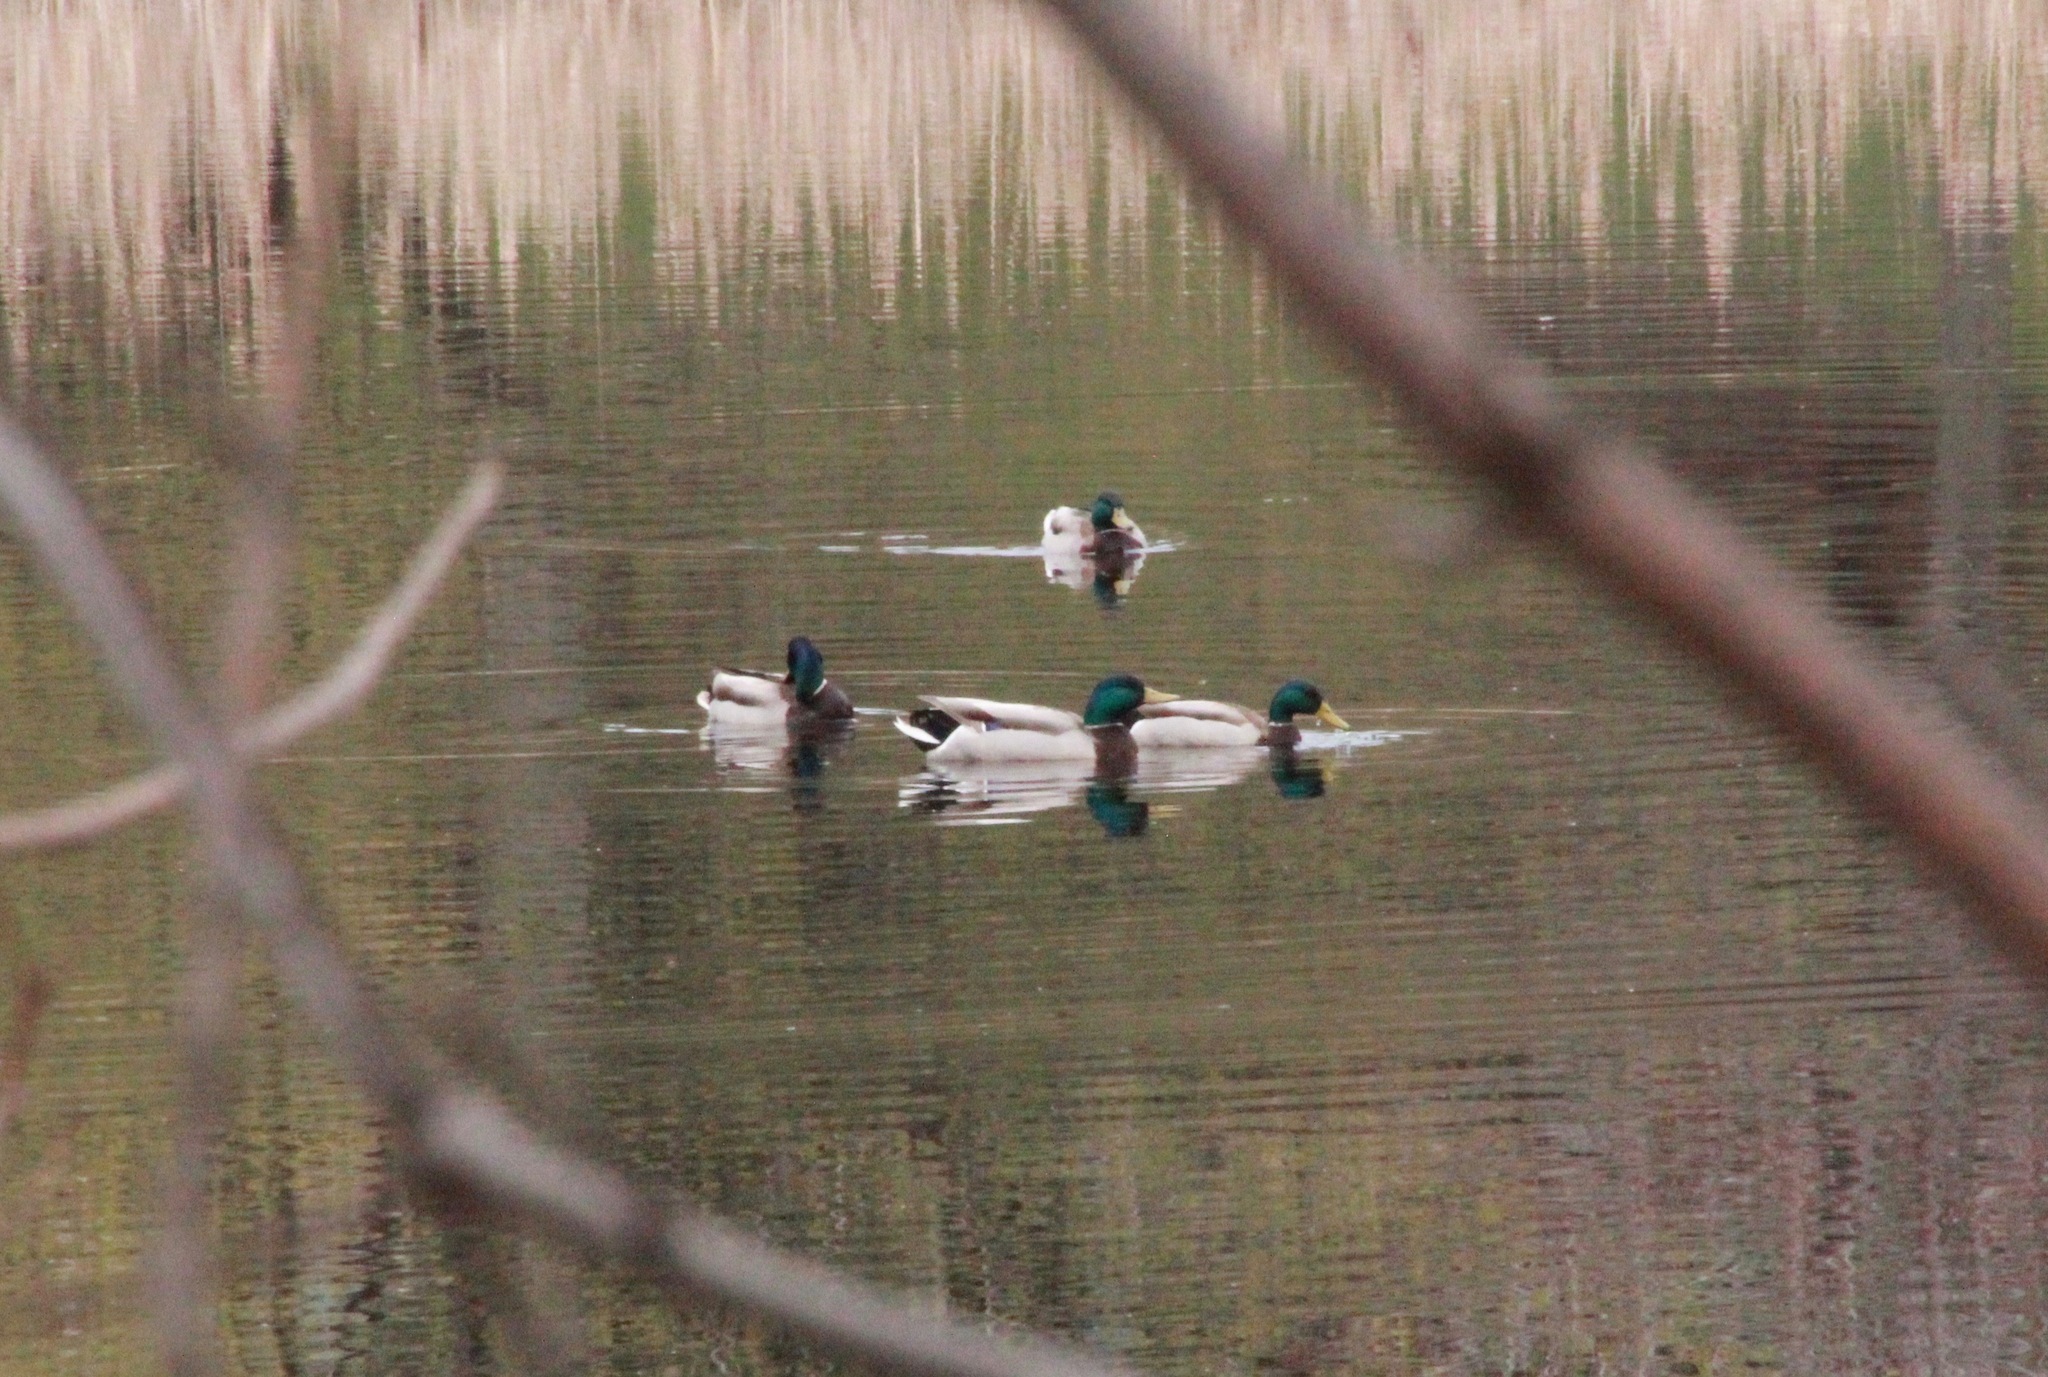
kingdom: Animalia
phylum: Chordata
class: Aves
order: Anseriformes
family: Anatidae
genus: Anas
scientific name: Anas platyrhynchos
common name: Mallard
